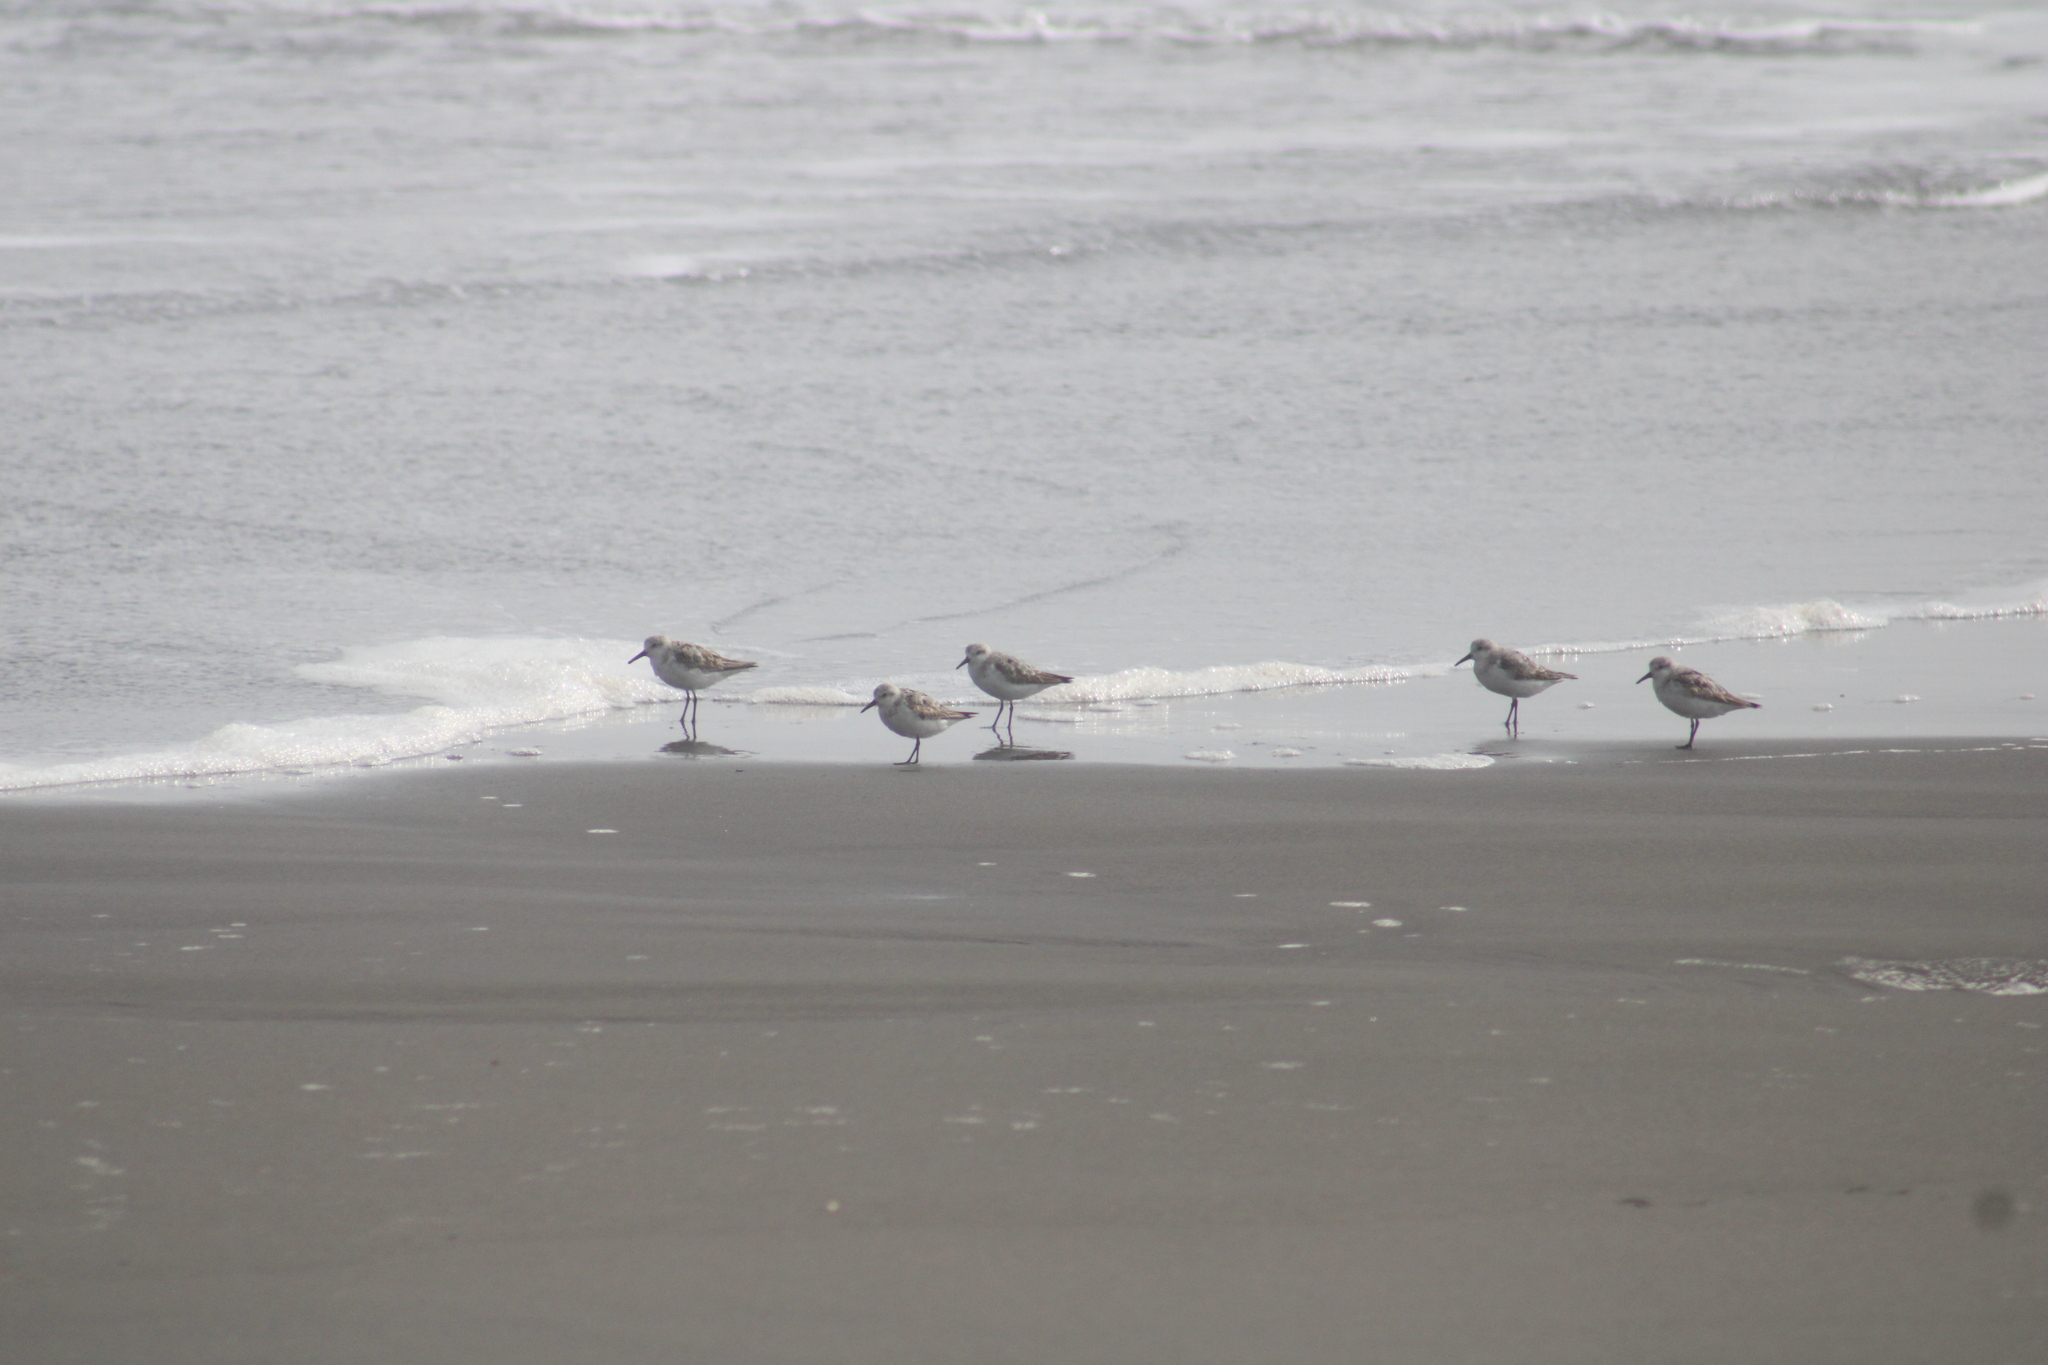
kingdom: Animalia
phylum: Chordata
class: Aves
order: Charadriiformes
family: Scolopacidae
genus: Calidris
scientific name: Calidris alba
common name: Sanderling
